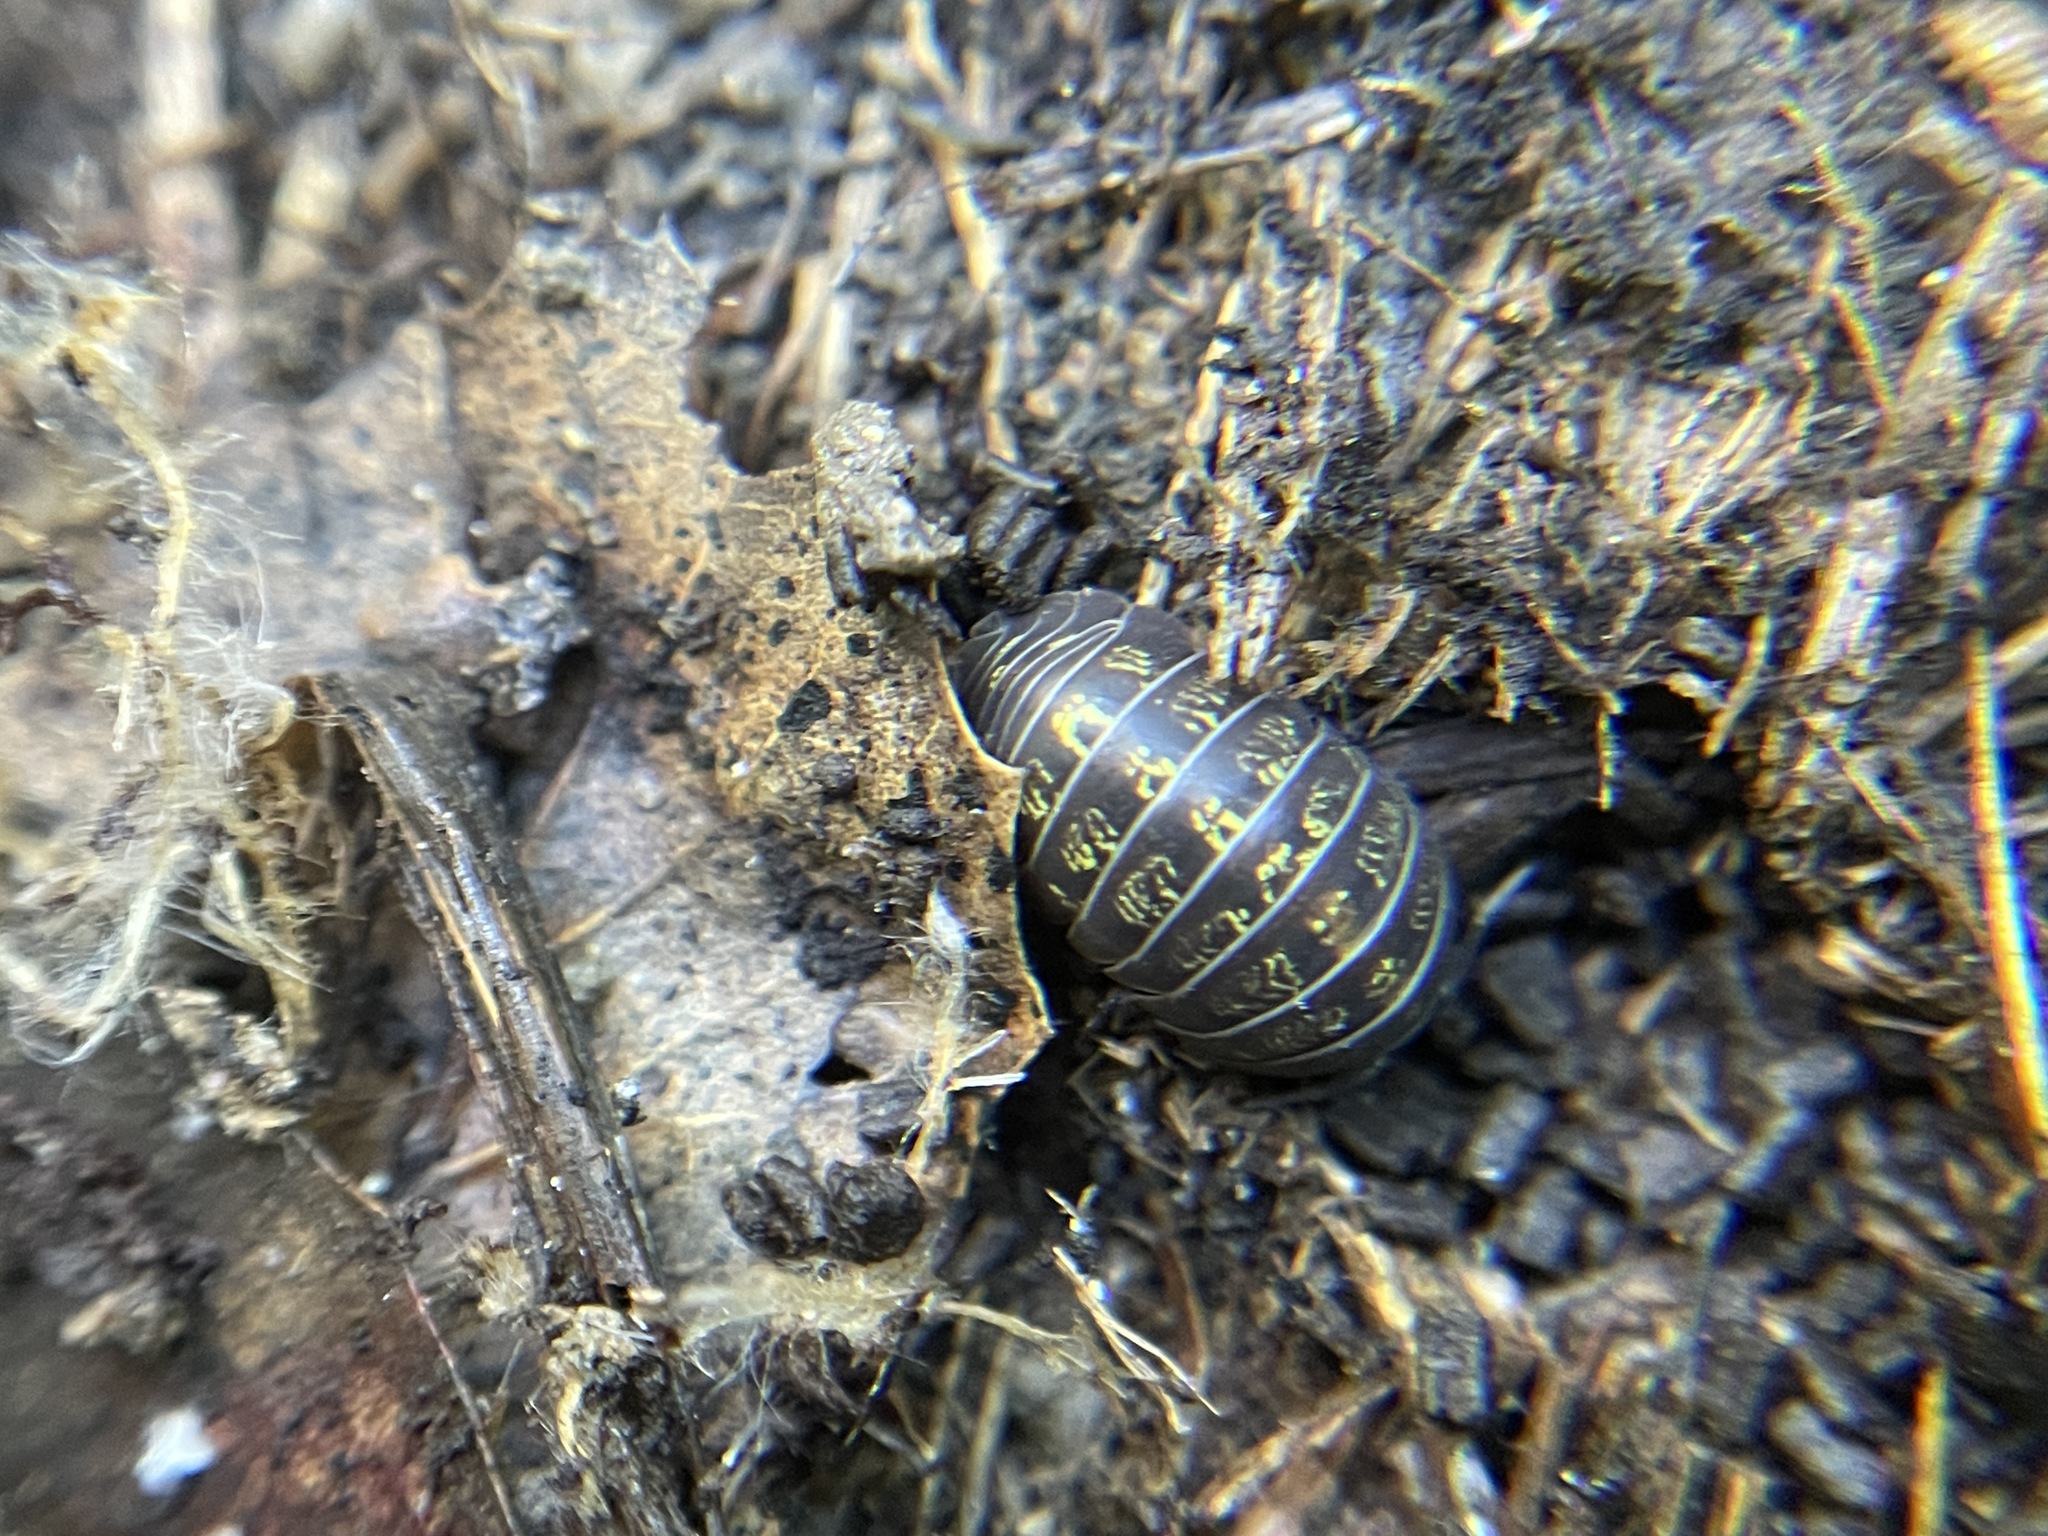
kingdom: Animalia
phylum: Arthropoda
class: Malacostraca
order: Isopoda
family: Armadillidiidae
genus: Armadillidium
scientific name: Armadillidium vulgare
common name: Common pill woodlouse
